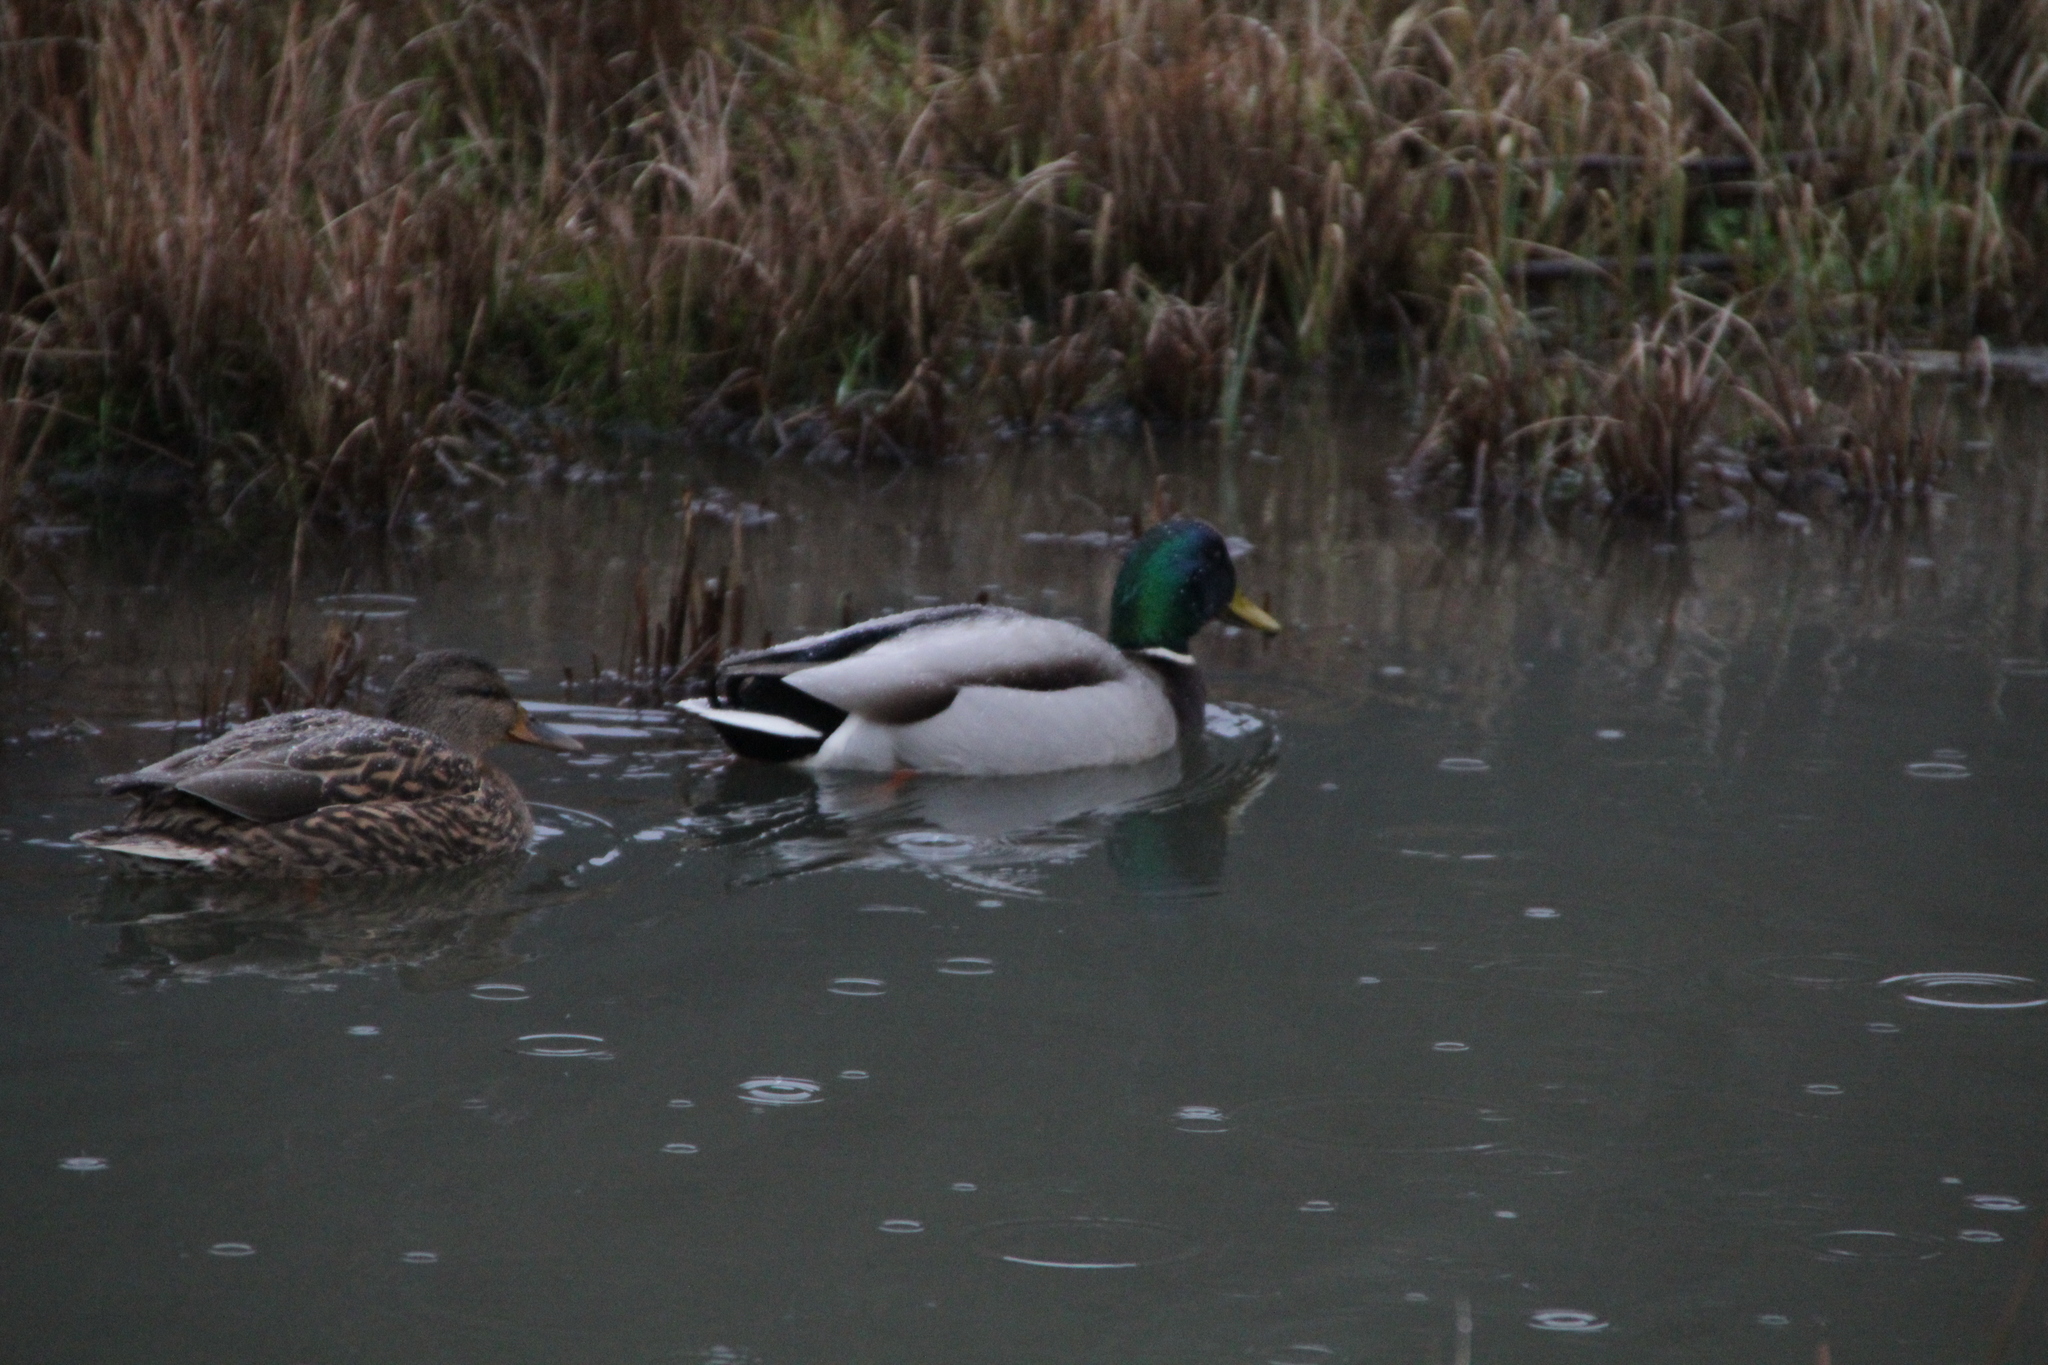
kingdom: Animalia
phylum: Chordata
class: Aves
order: Anseriformes
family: Anatidae
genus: Anas
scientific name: Anas platyrhynchos
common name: Mallard
